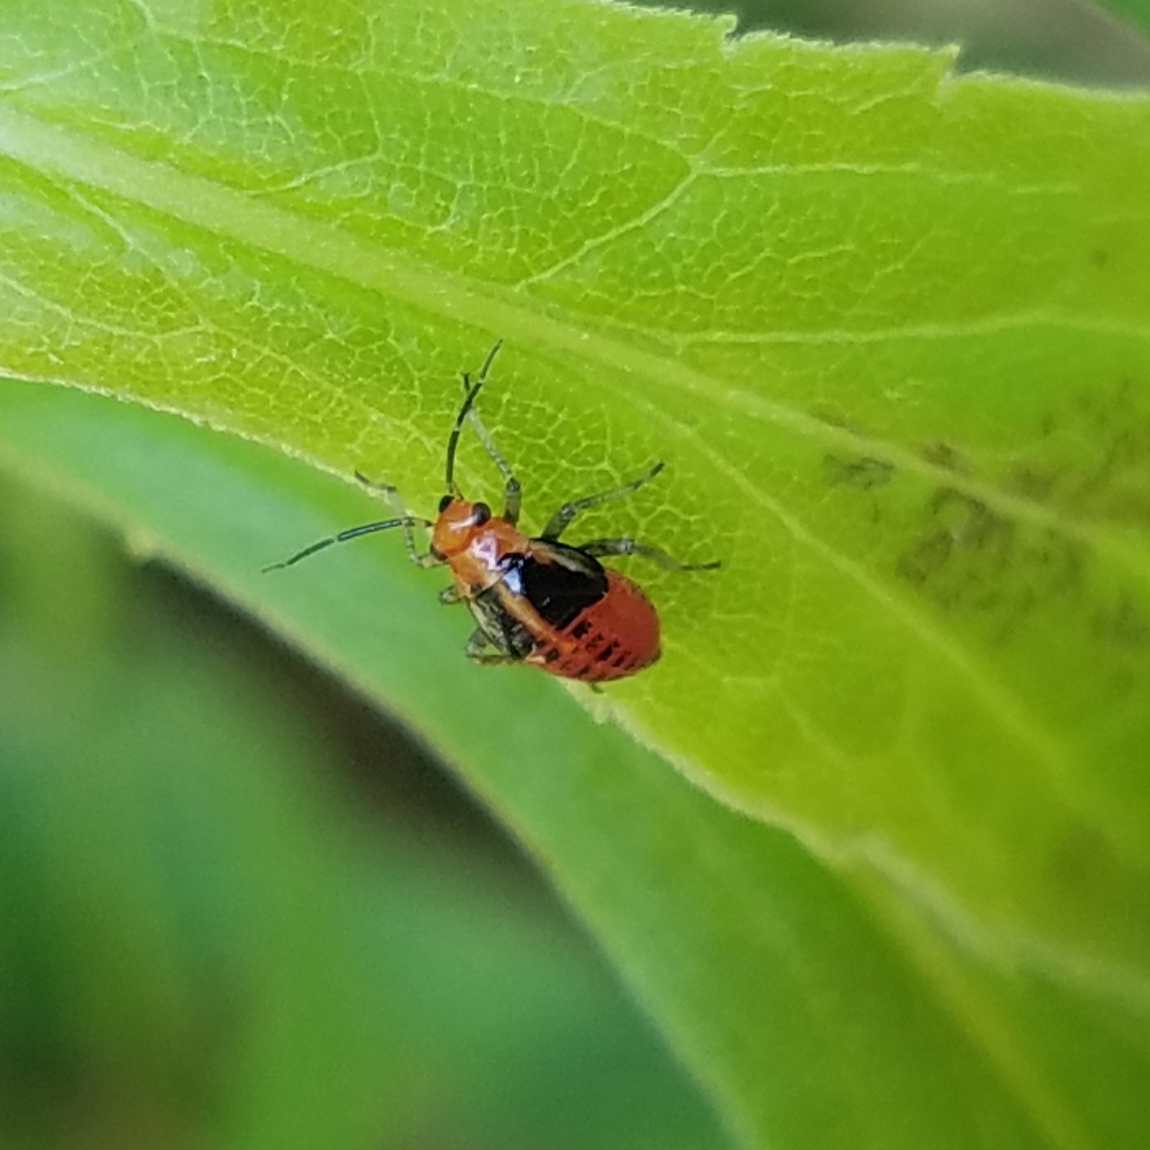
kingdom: Animalia
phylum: Arthropoda
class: Insecta
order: Hemiptera
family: Miridae
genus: Poecilocapsus
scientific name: Poecilocapsus lineatus
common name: Four-lined plant bug
